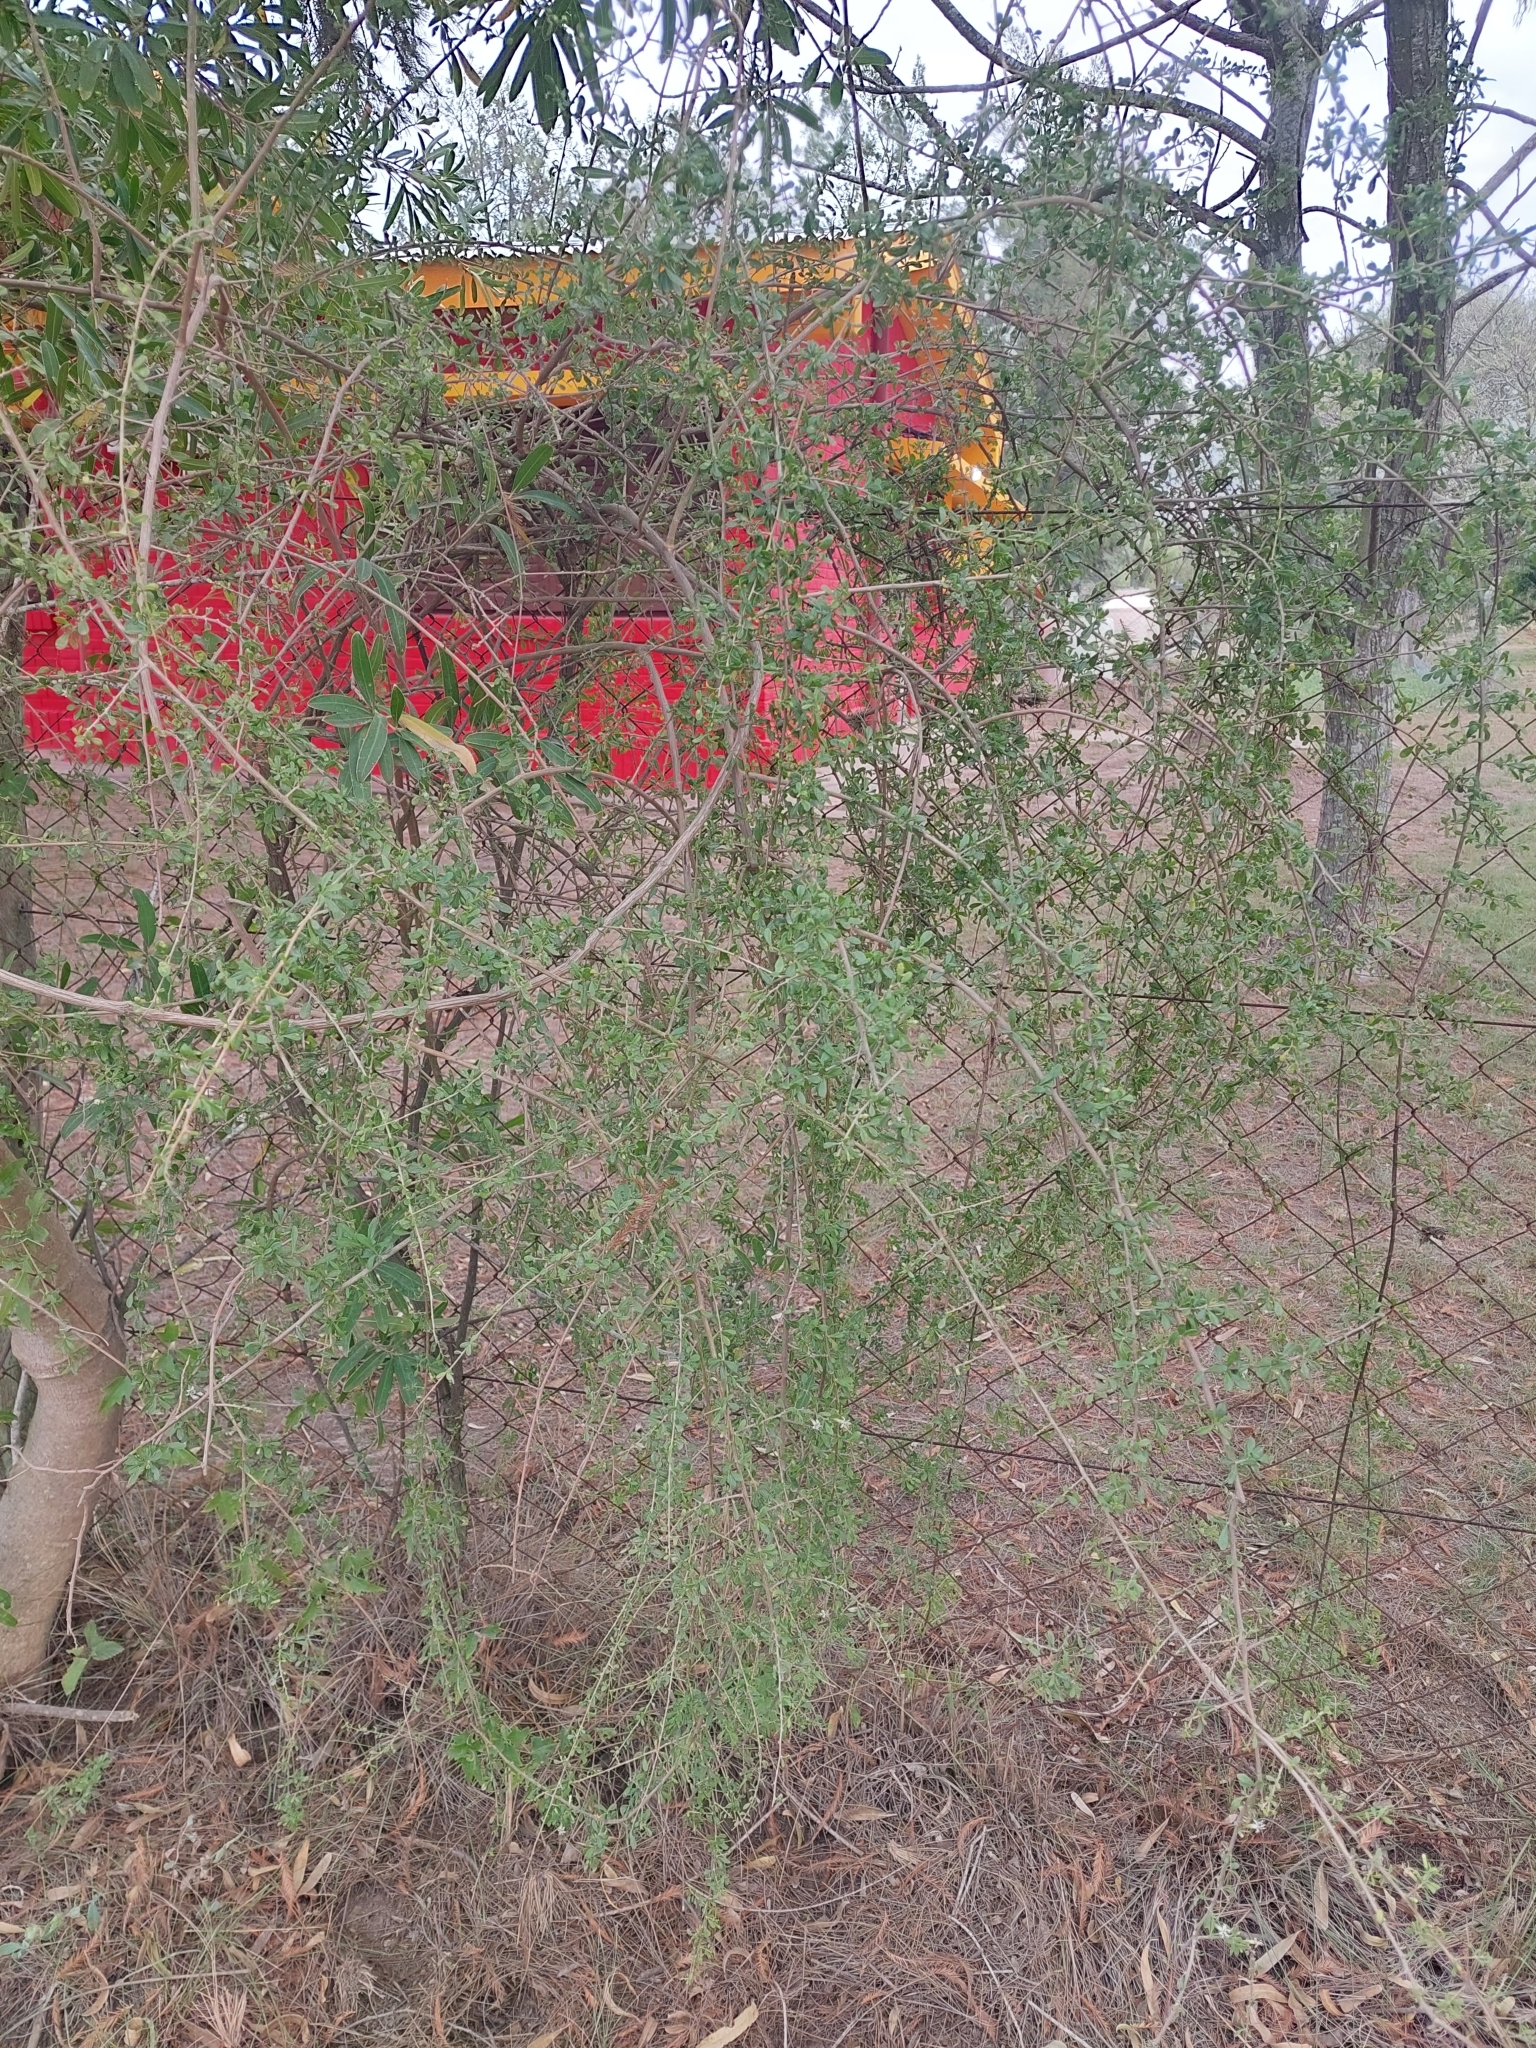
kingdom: Plantae
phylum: Tracheophyta
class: Magnoliopsida
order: Solanales
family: Solanaceae
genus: Lycium
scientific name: Lycium tenuispinosum
